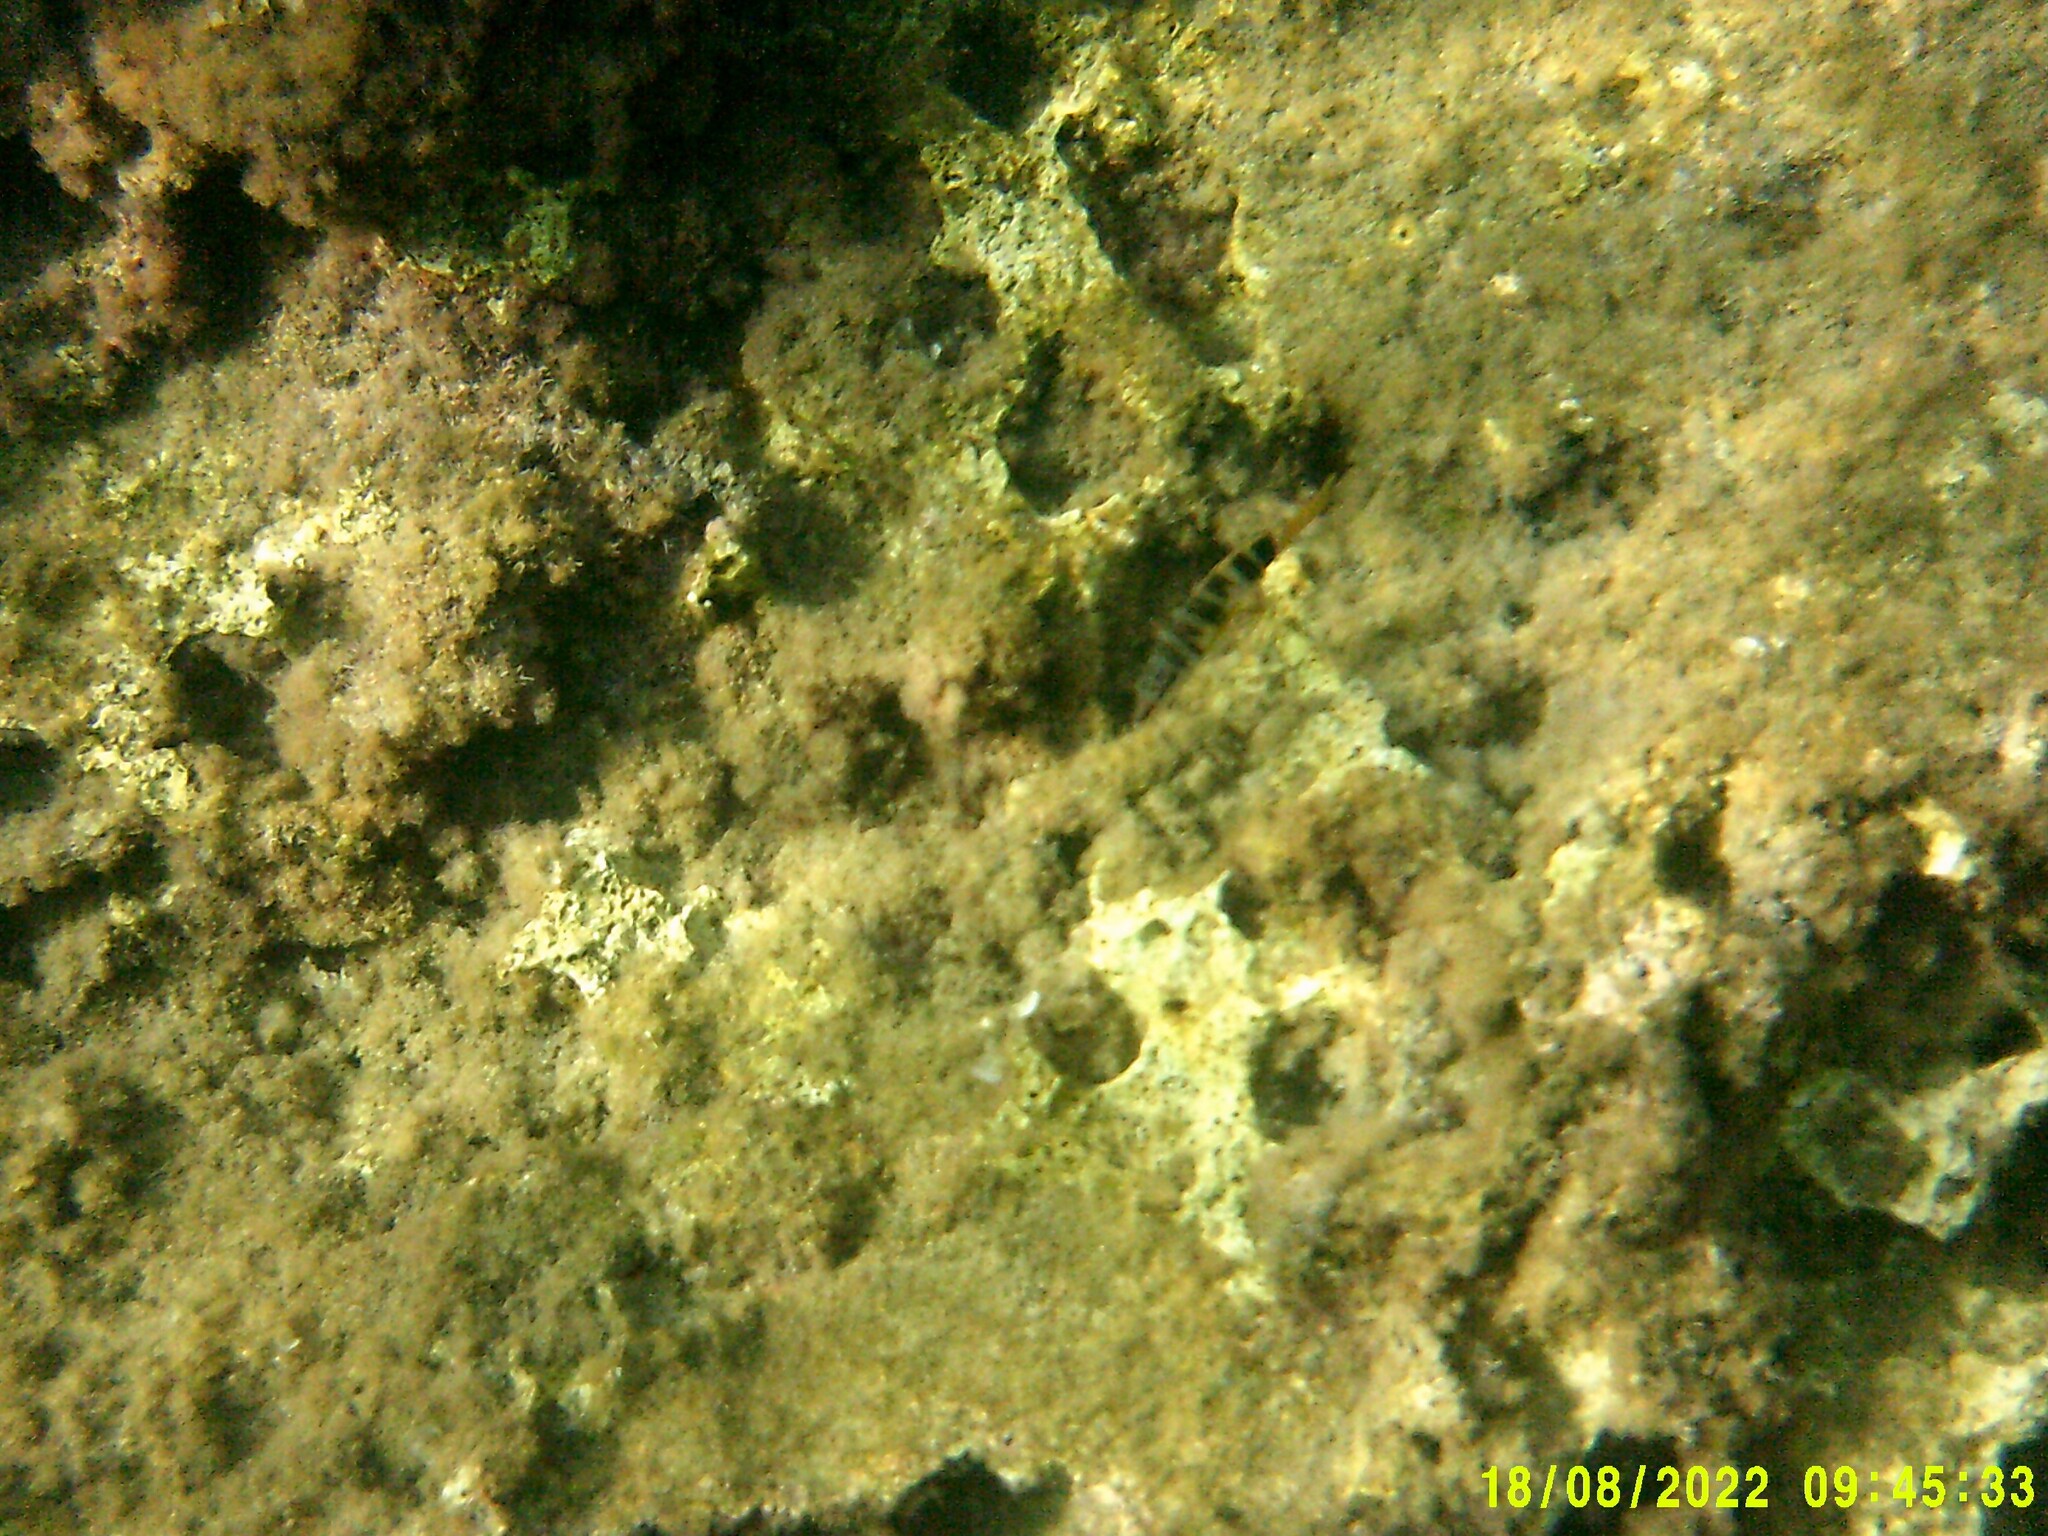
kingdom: Animalia
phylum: Chordata
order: Perciformes
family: Serranidae
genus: Serranus
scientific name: Serranus scriba
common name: Painted comber
